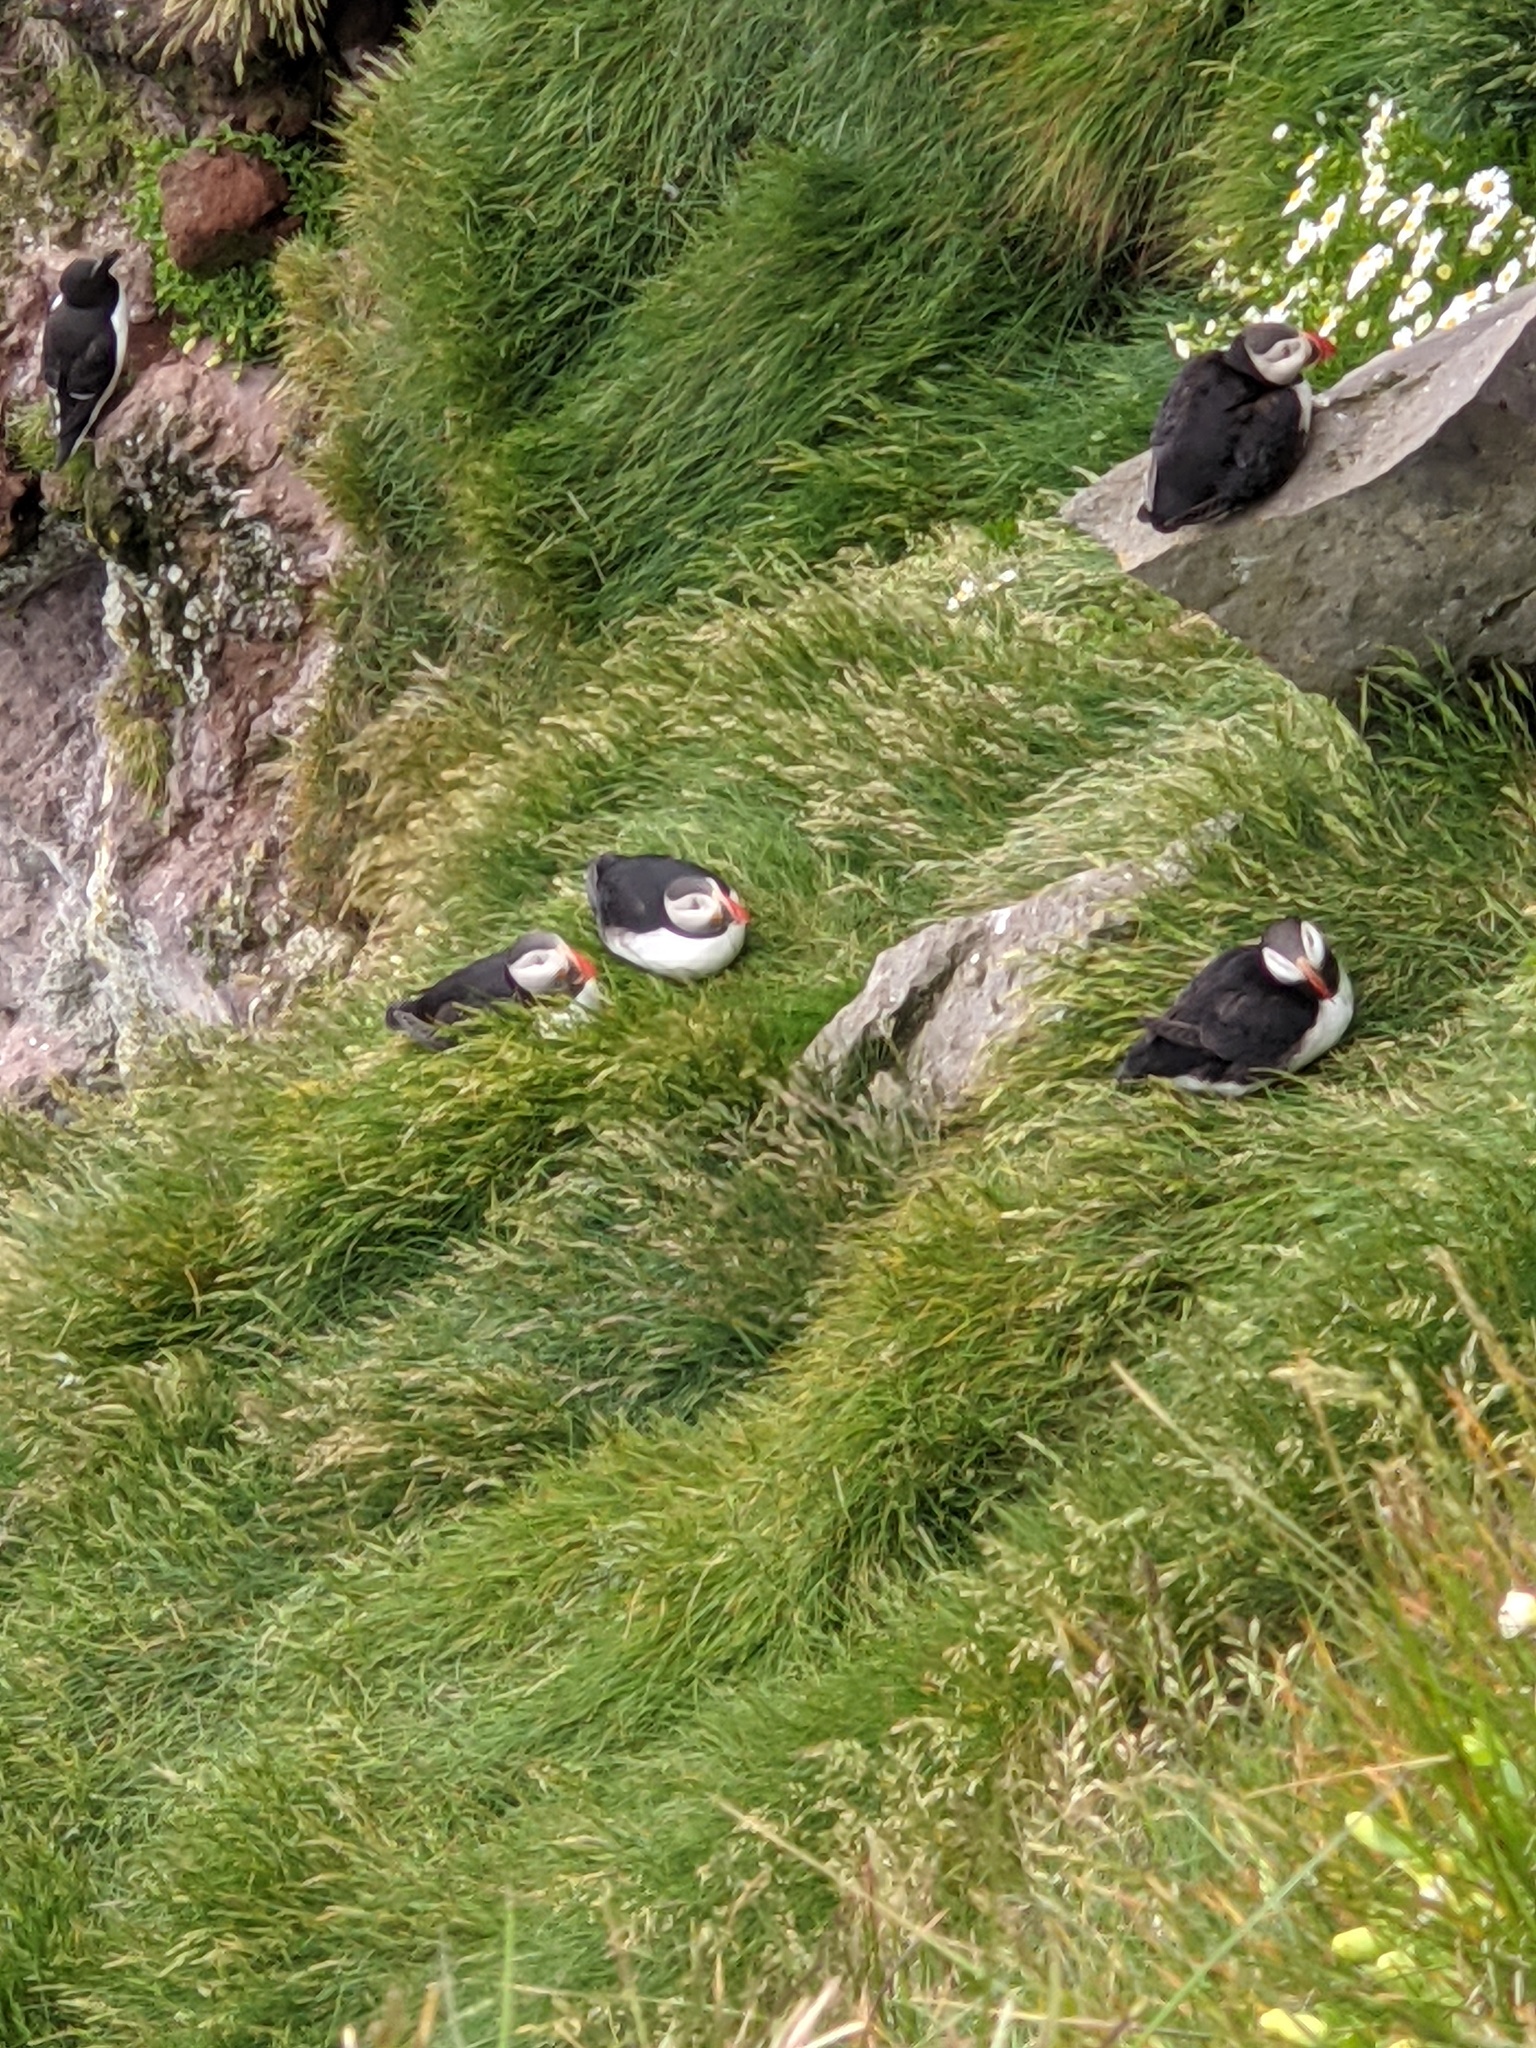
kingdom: Animalia
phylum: Chordata
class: Aves
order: Charadriiformes
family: Alcidae
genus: Fratercula
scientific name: Fratercula arctica
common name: Atlantic puffin
